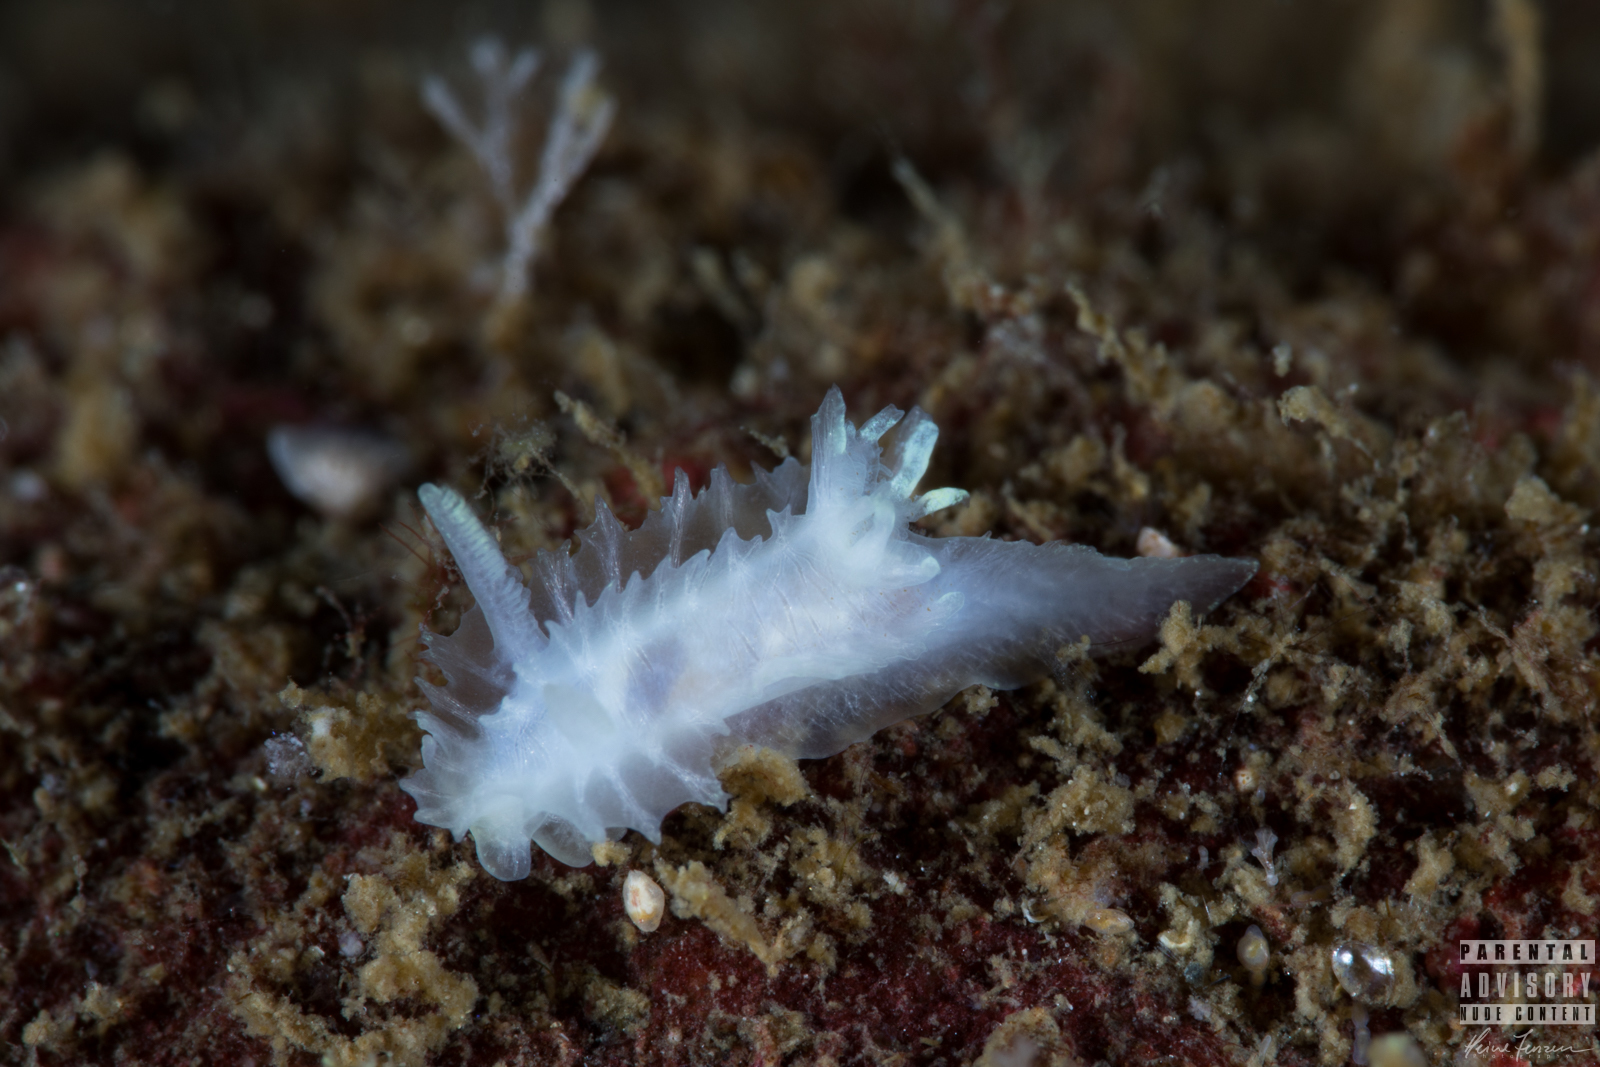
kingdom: Animalia
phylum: Mollusca
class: Gastropoda
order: Nudibranchia
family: Goniodorididae
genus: Lophodoris
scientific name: Lophodoris danielsseni
